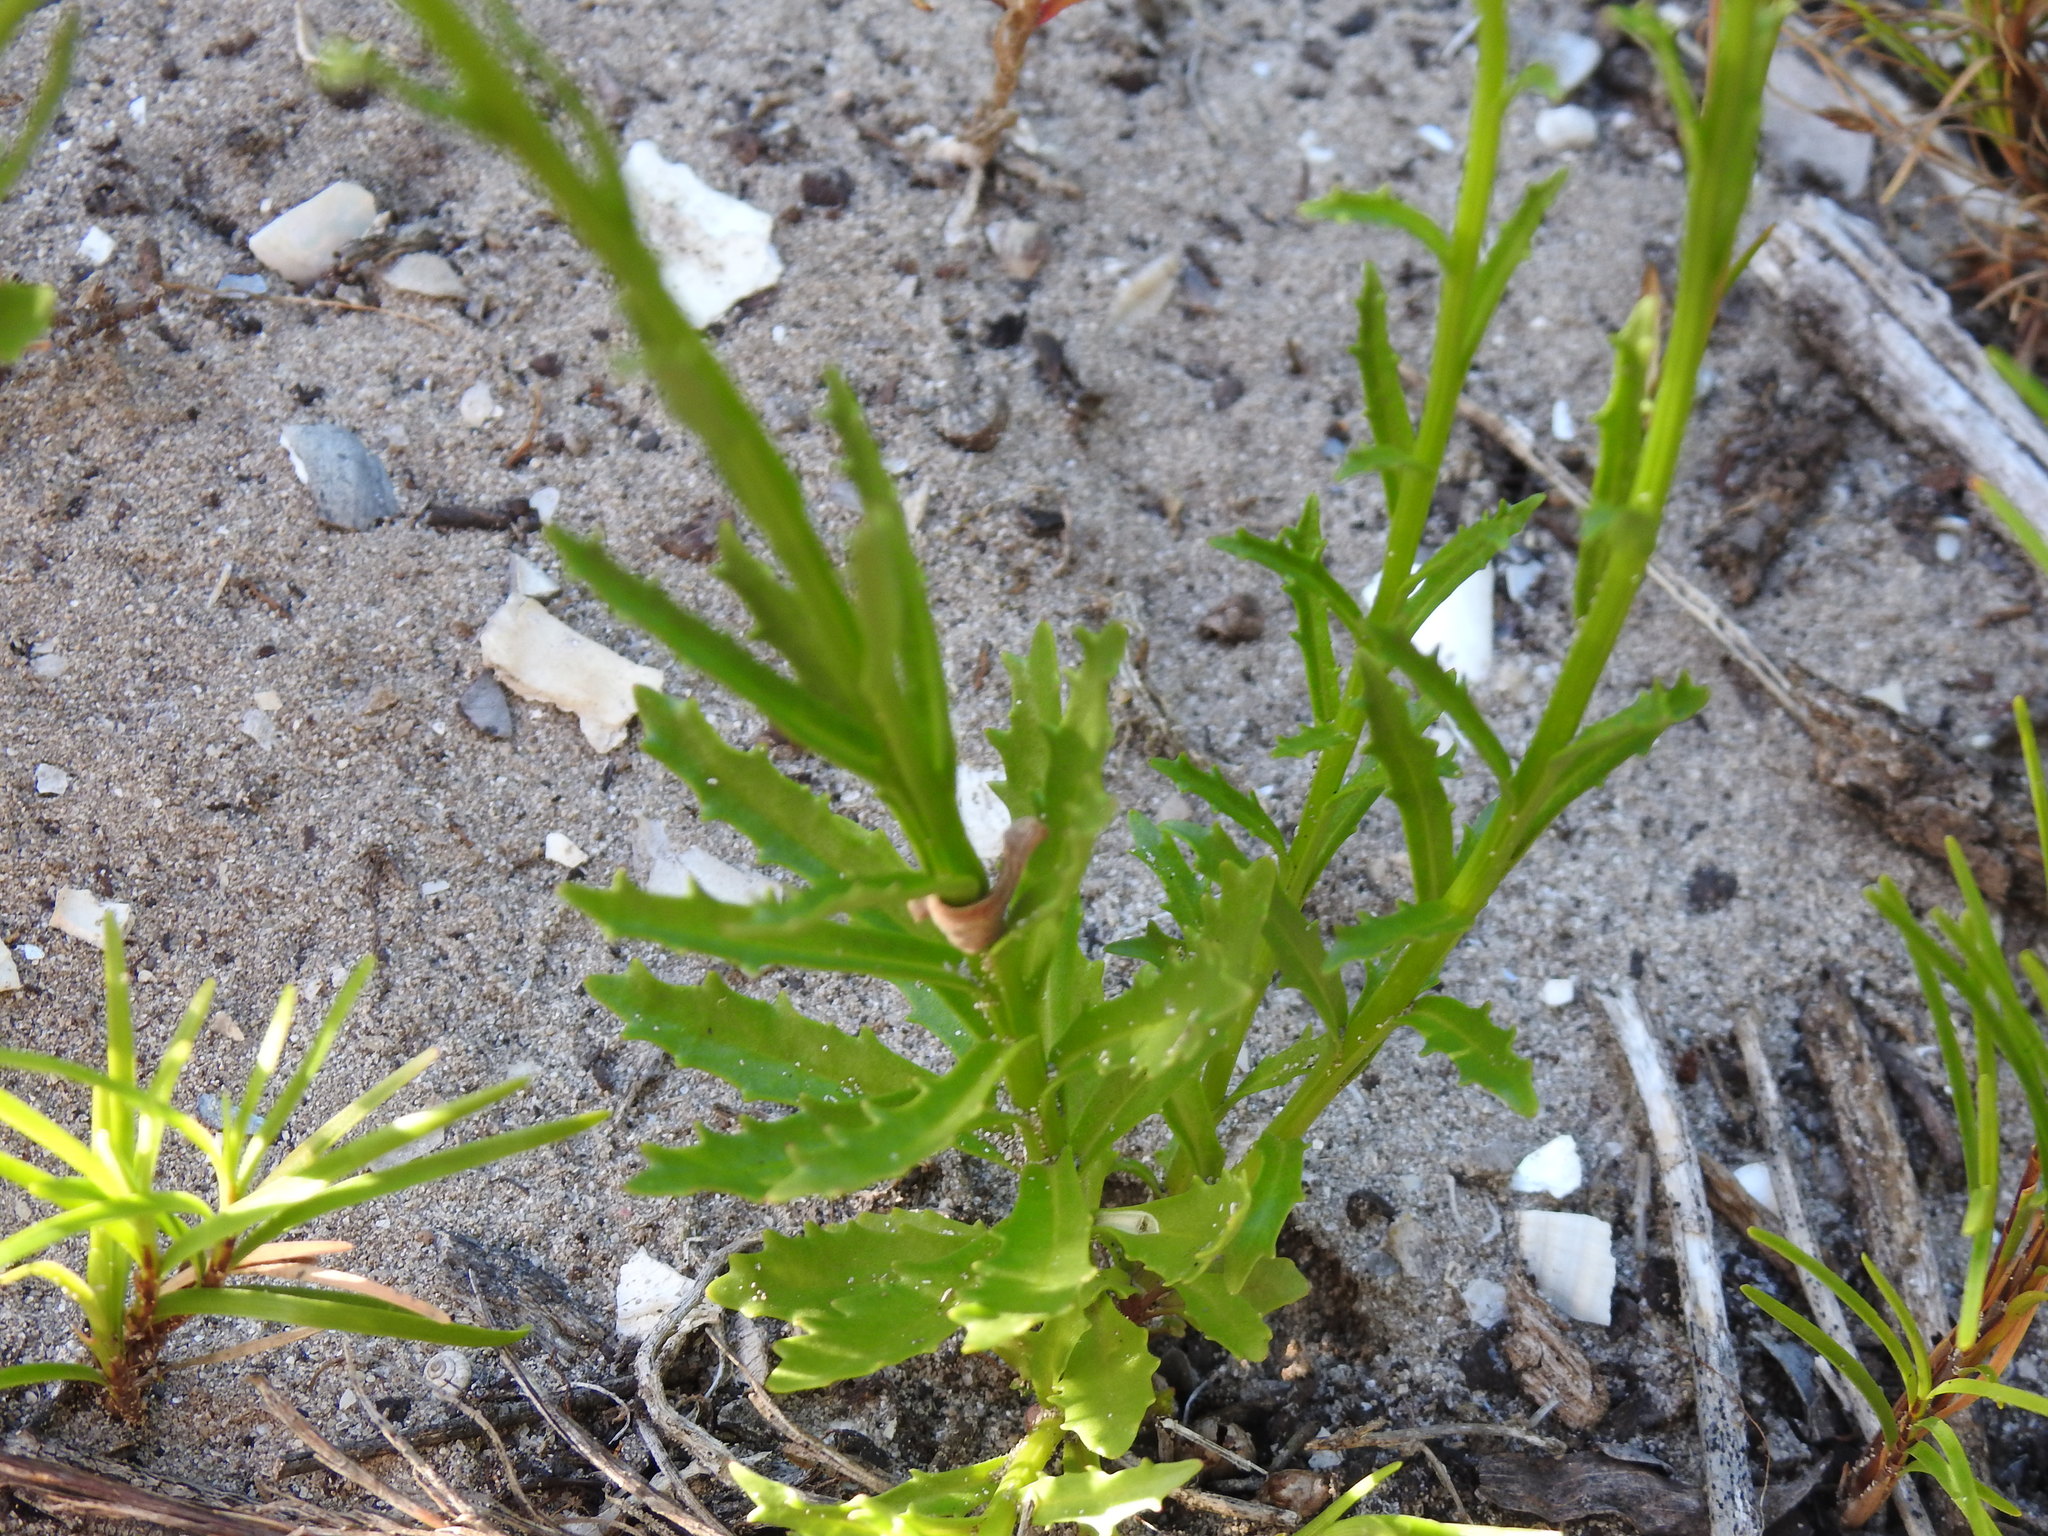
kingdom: Plantae
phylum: Tracheophyta
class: Magnoliopsida
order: Asterales
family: Campanulaceae
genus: Lobelia
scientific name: Lobelia comosa
